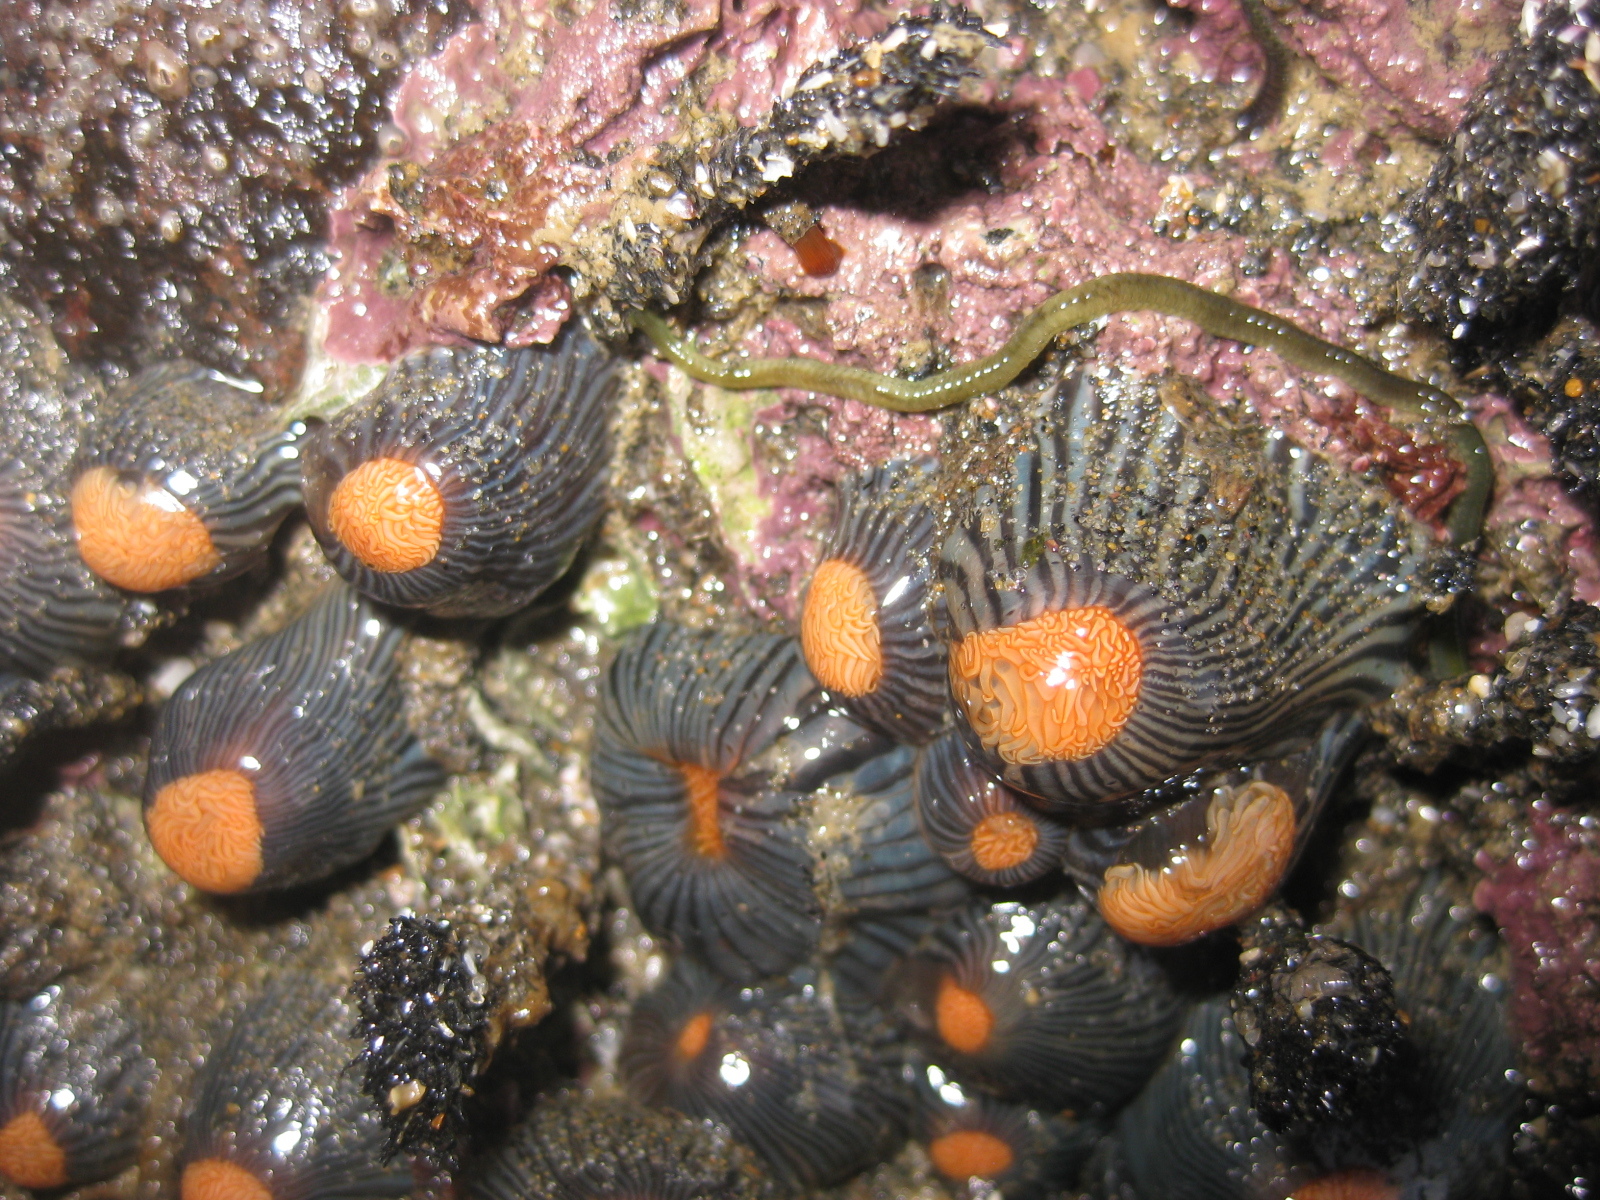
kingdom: Animalia
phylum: Cnidaria
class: Anthozoa
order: Actiniaria
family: Diadumenidae
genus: Diadumene
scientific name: Diadumene neozelanica
